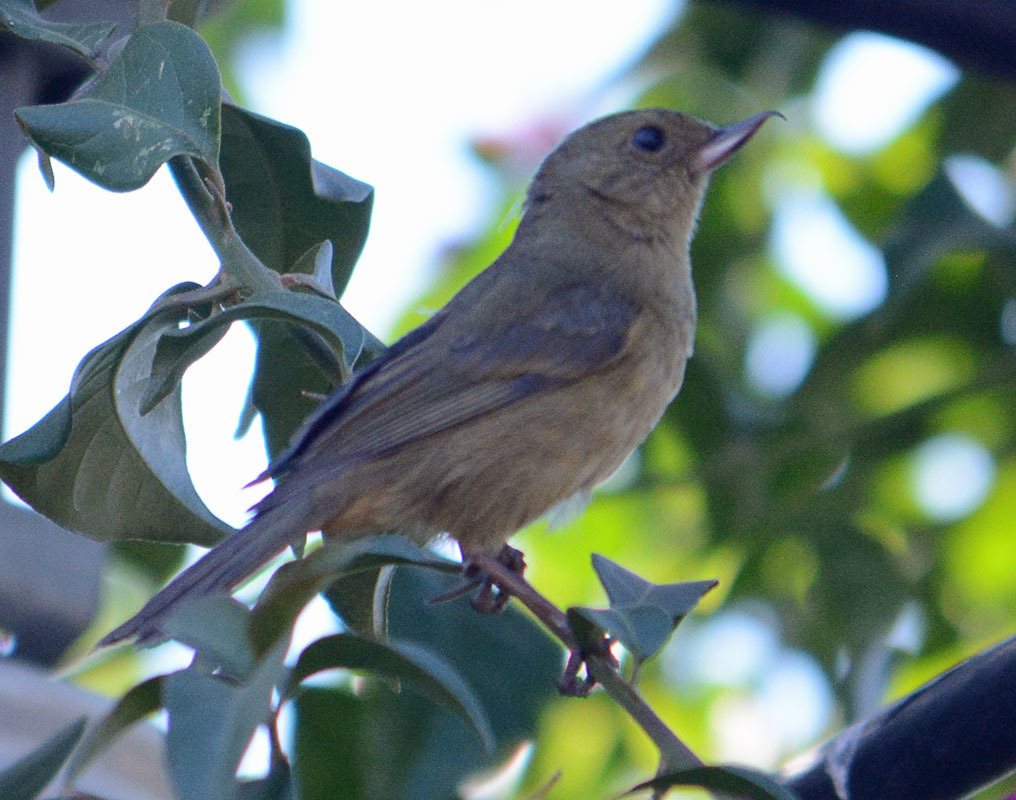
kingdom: Animalia
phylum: Chordata
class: Aves
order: Passeriformes
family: Thraupidae
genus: Diglossa
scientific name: Diglossa baritula
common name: Cinnamon-bellied flowerpiercer
